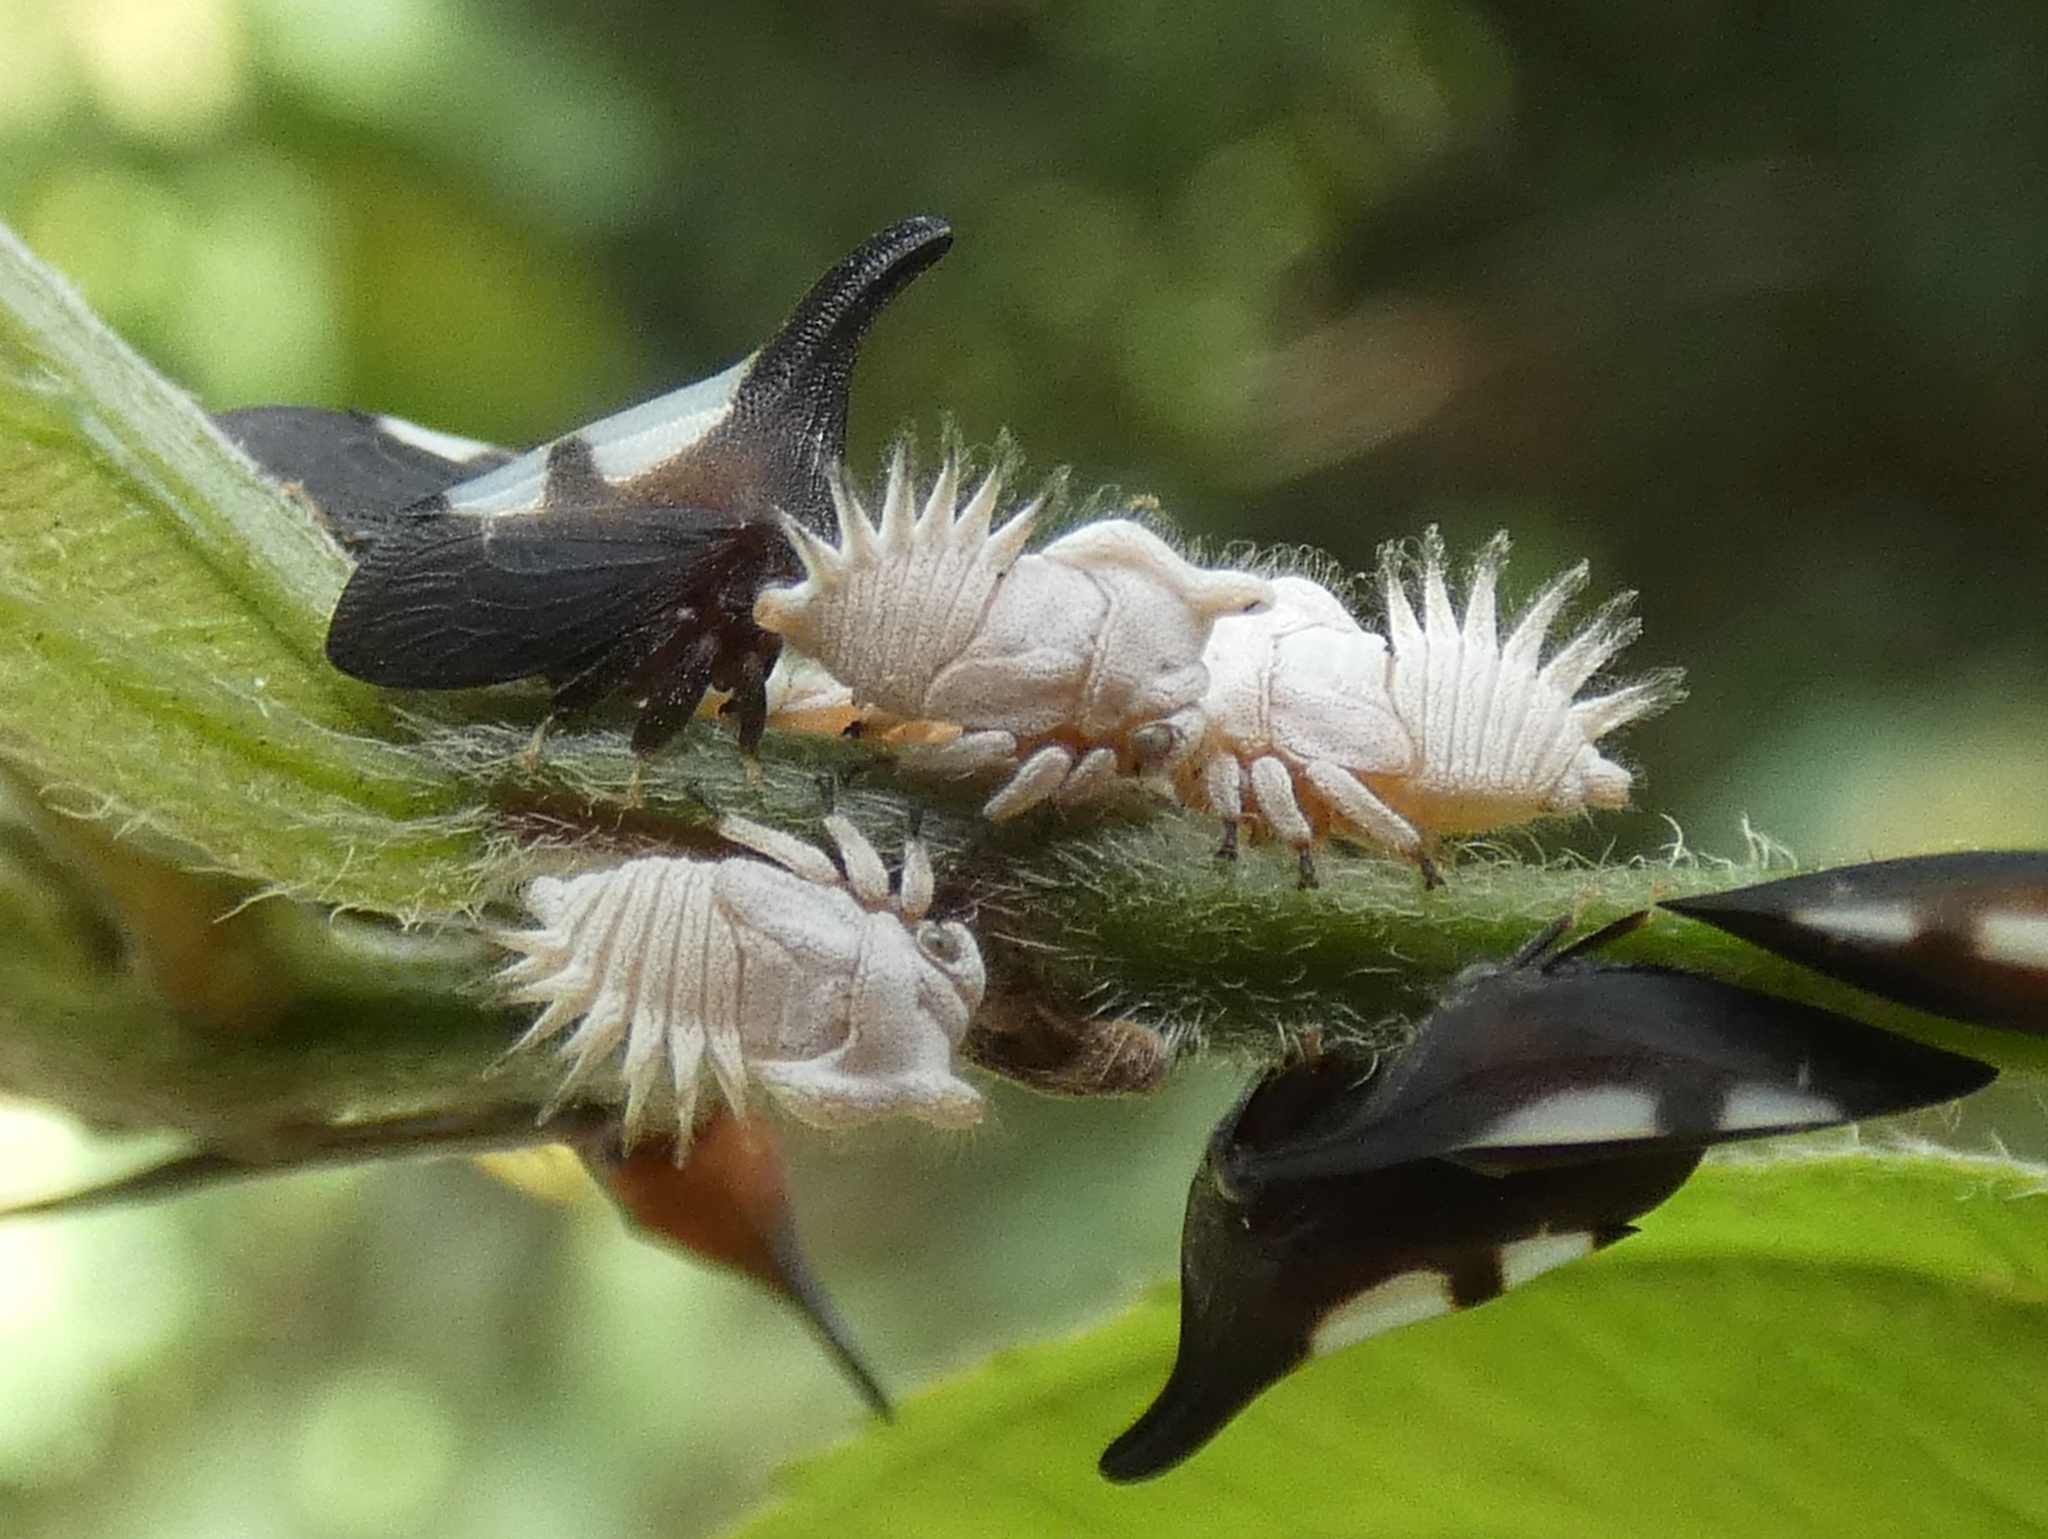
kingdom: Animalia
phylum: Arthropoda
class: Insecta
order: Hemiptera
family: Membracidae
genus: Enchenopa
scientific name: Enchenopa
